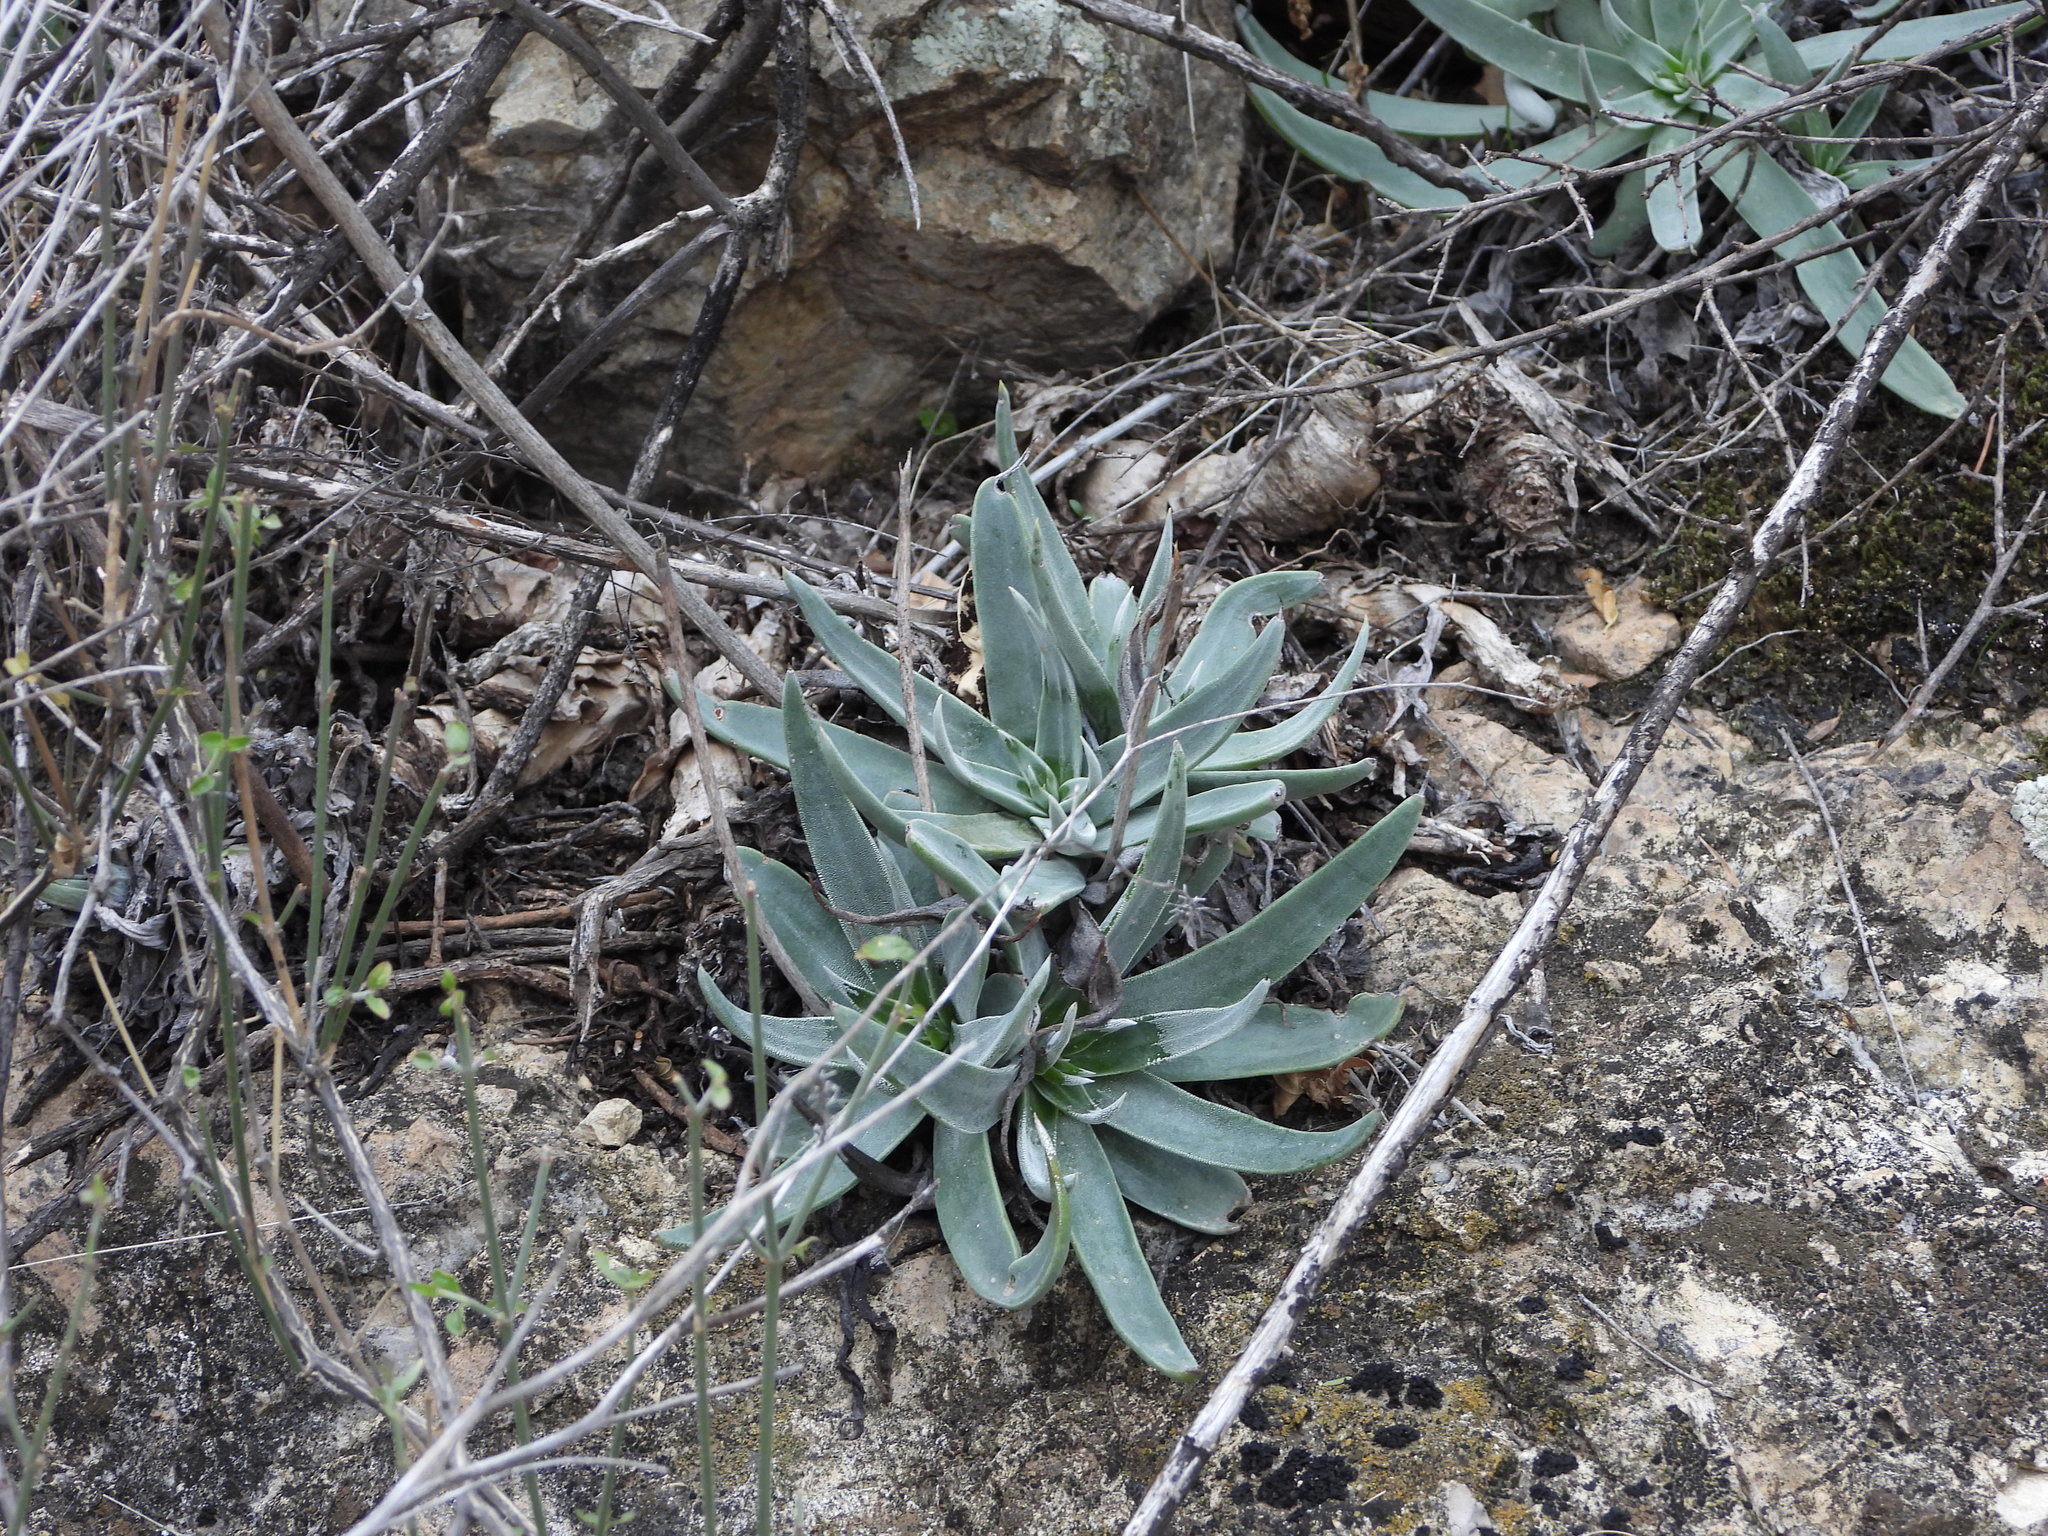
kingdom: Plantae
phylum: Tracheophyta
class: Magnoliopsida
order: Saxifragales
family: Crassulaceae
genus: Dudleya
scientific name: Dudleya collomiae
